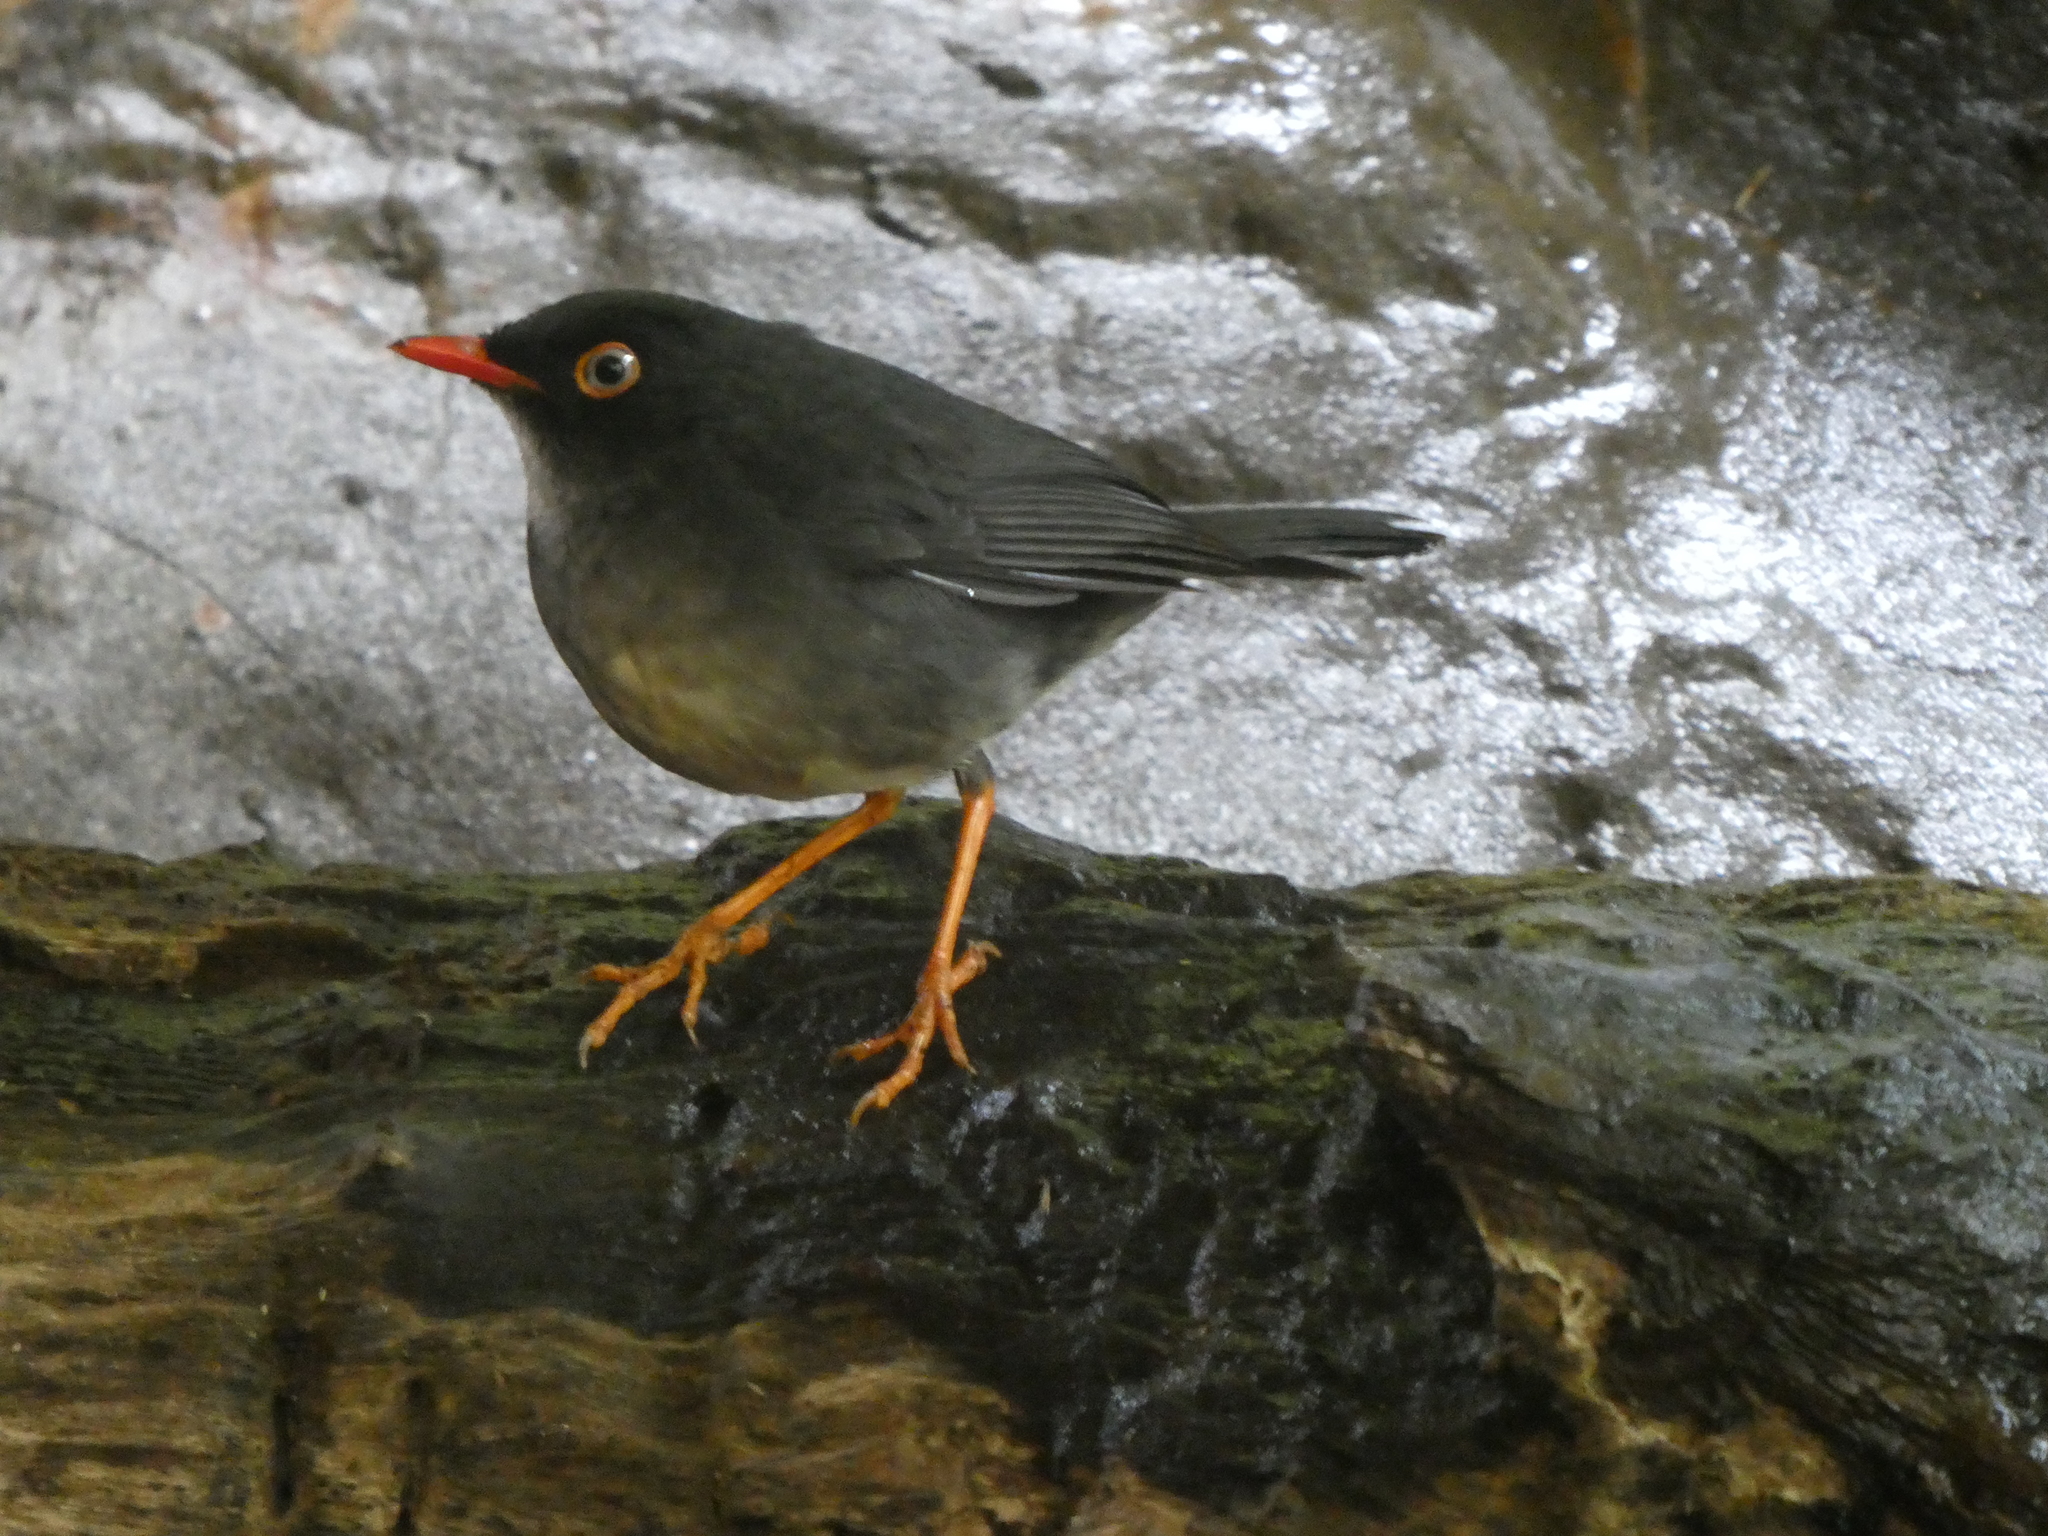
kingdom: Animalia
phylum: Chordata
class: Aves
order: Passeriformes
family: Turdidae
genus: Catharus
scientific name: Catharus fuscater
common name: Slaty-backed nightingale-thrush
